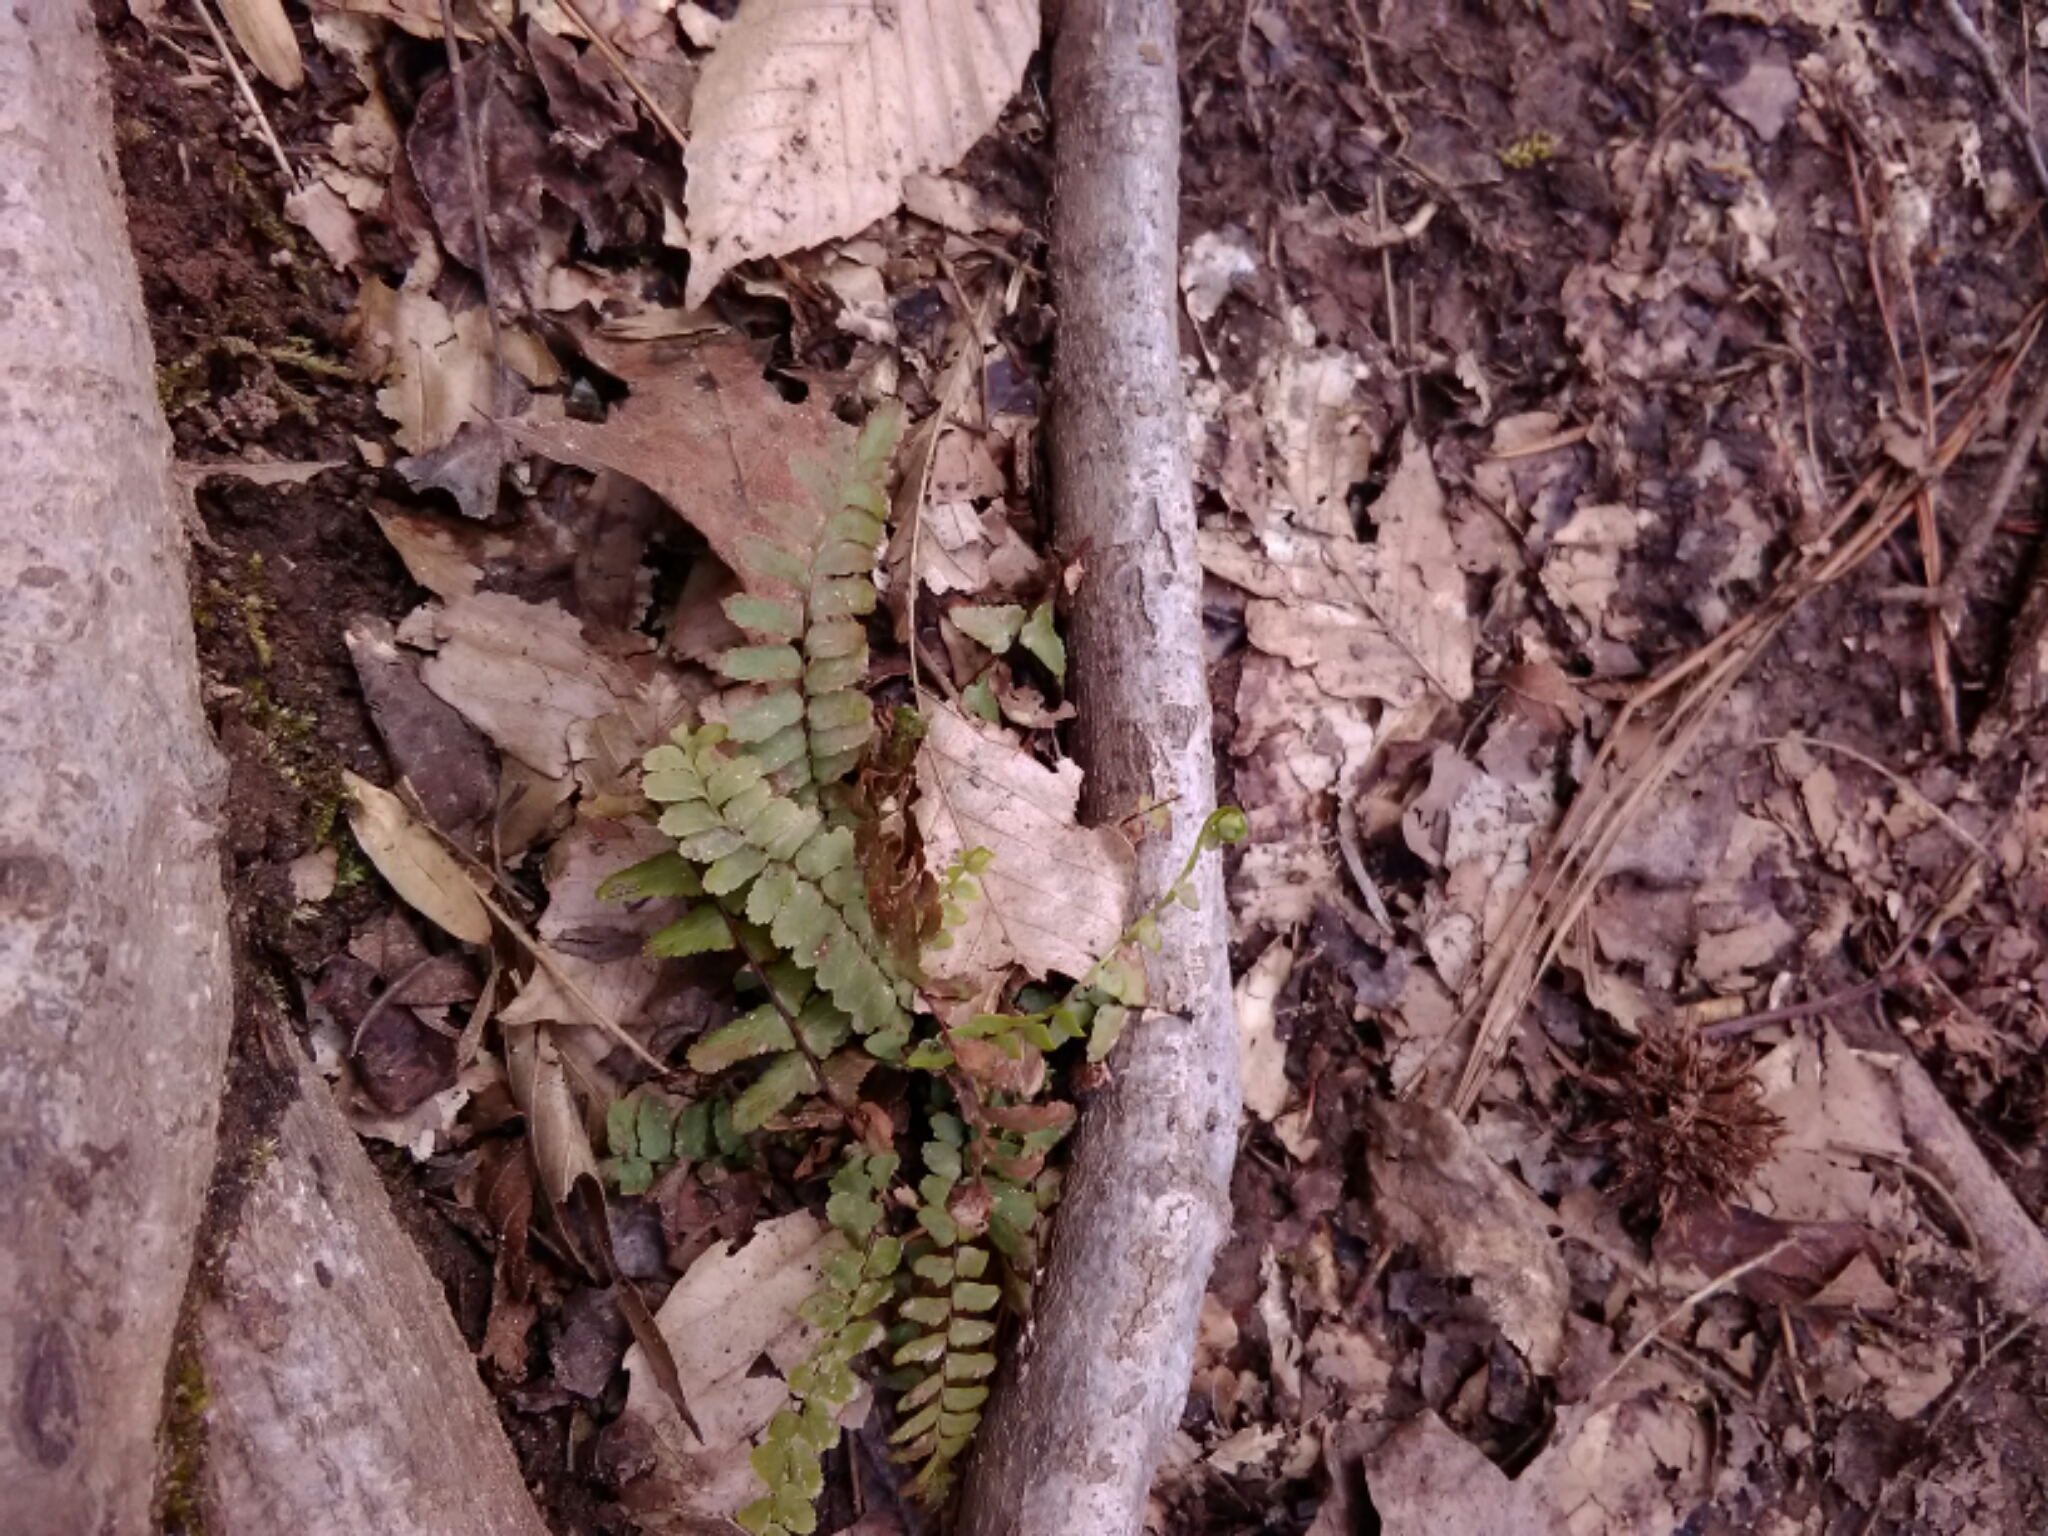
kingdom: Plantae
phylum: Tracheophyta
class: Polypodiopsida
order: Polypodiales
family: Aspleniaceae
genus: Asplenium
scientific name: Asplenium platyneuron
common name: Ebony spleenwort
